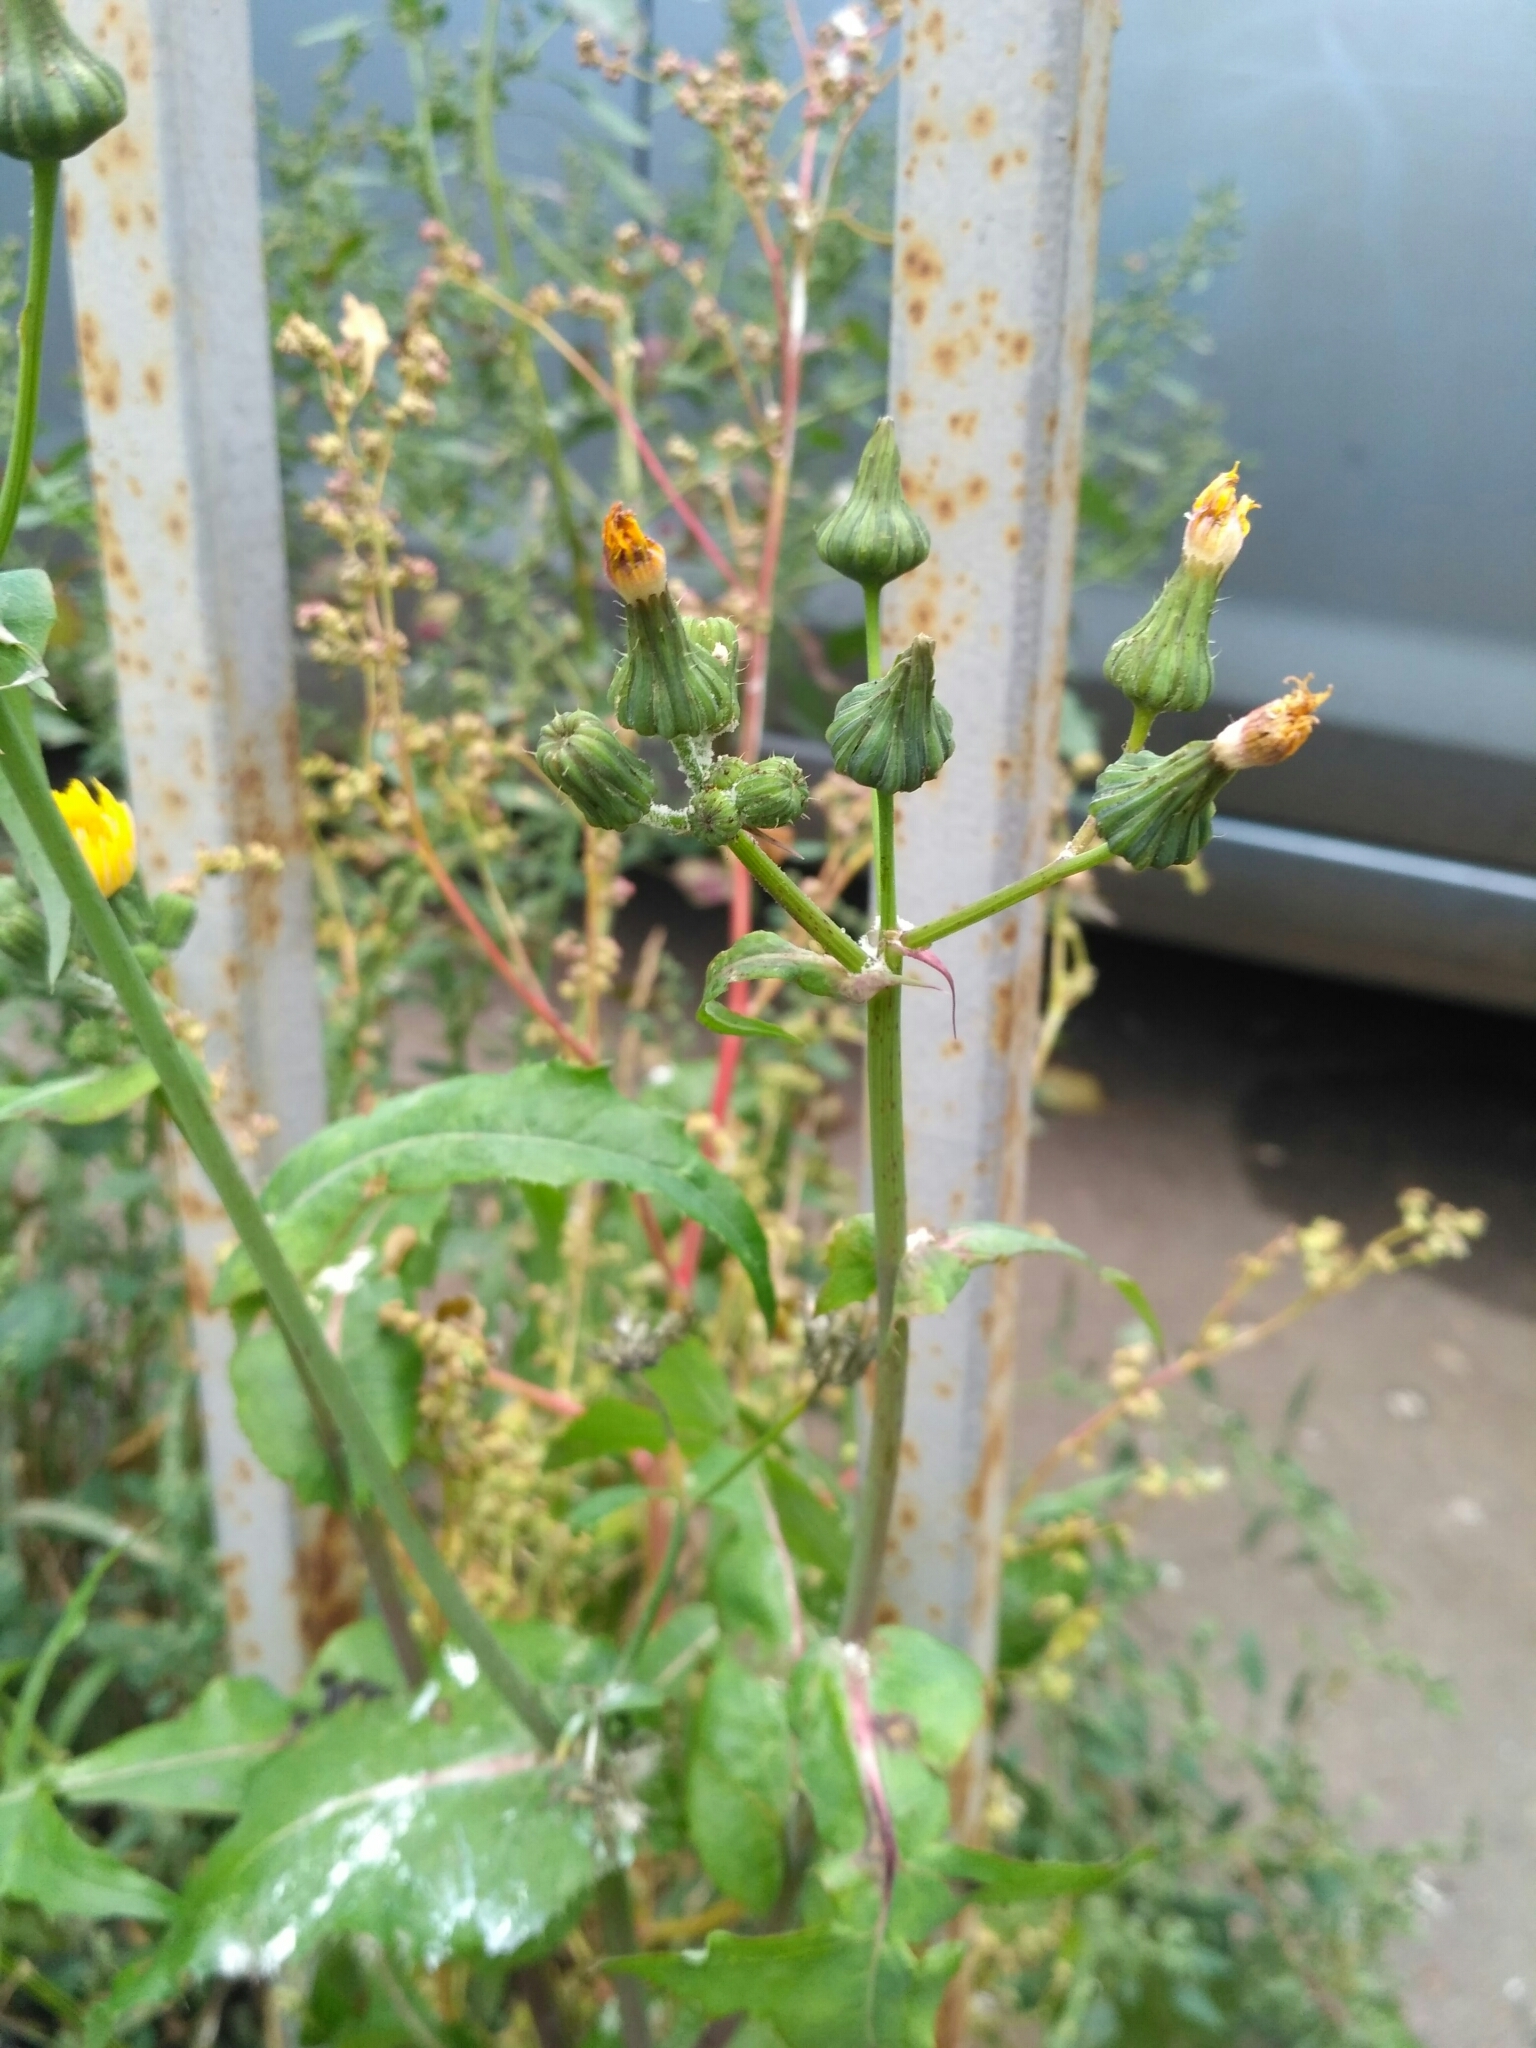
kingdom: Plantae
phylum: Tracheophyta
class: Magnoliopsida
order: Asterales
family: Asteraceae
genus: Sonchus
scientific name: Sonchus oleraceus
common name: Common sowthistle
